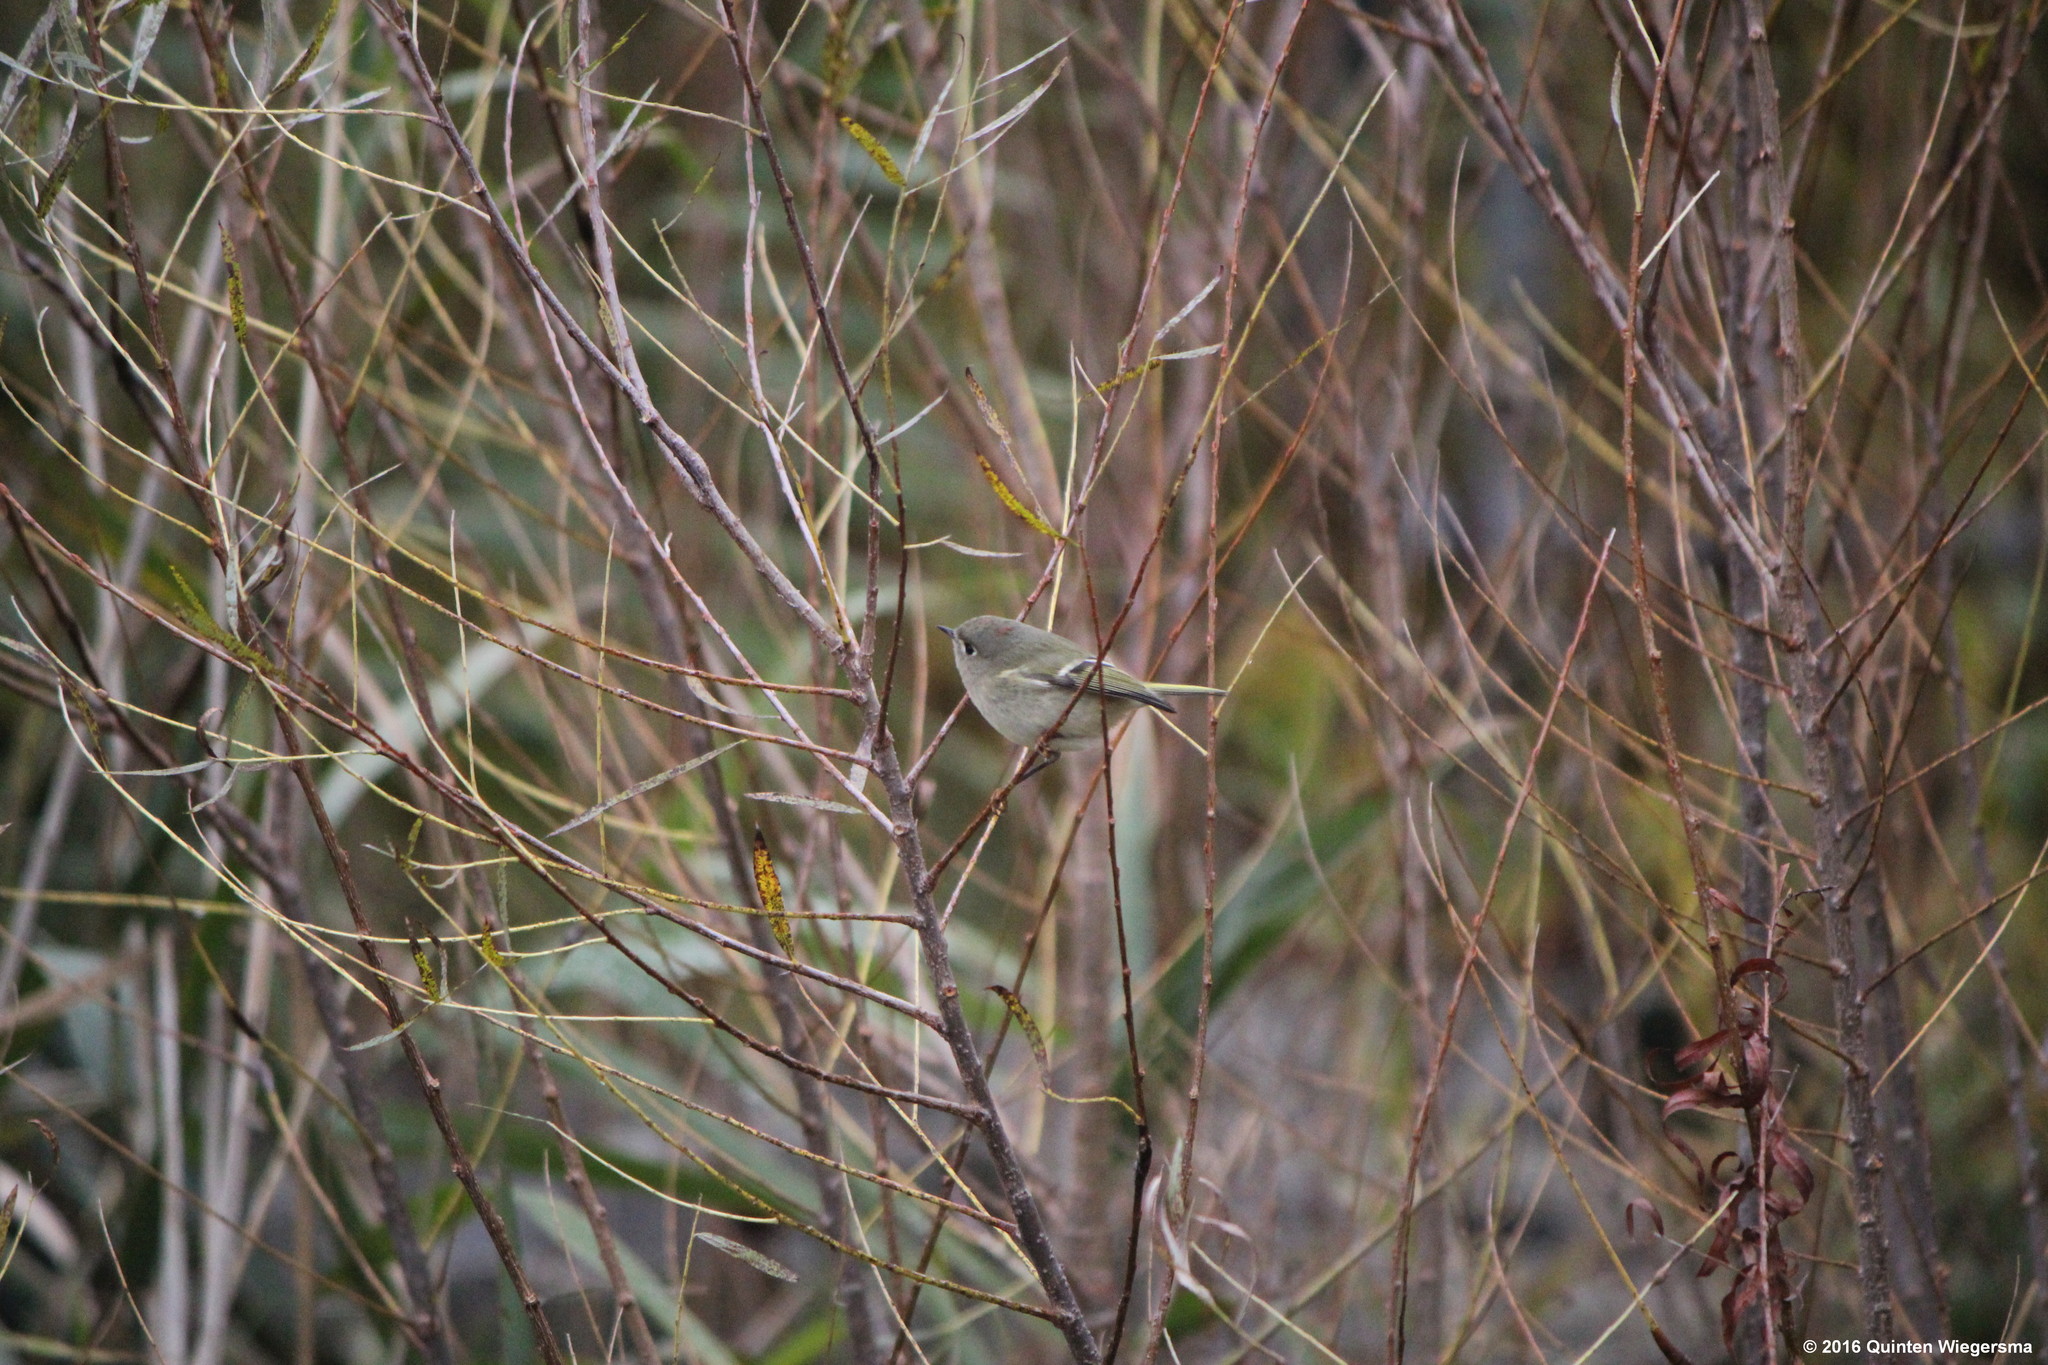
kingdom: Animalia
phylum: Chordata
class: Aves
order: Passeriformes
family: Regulidae
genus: Regulus
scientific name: Regulus calendula
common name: Ruby-crowned kinglet
